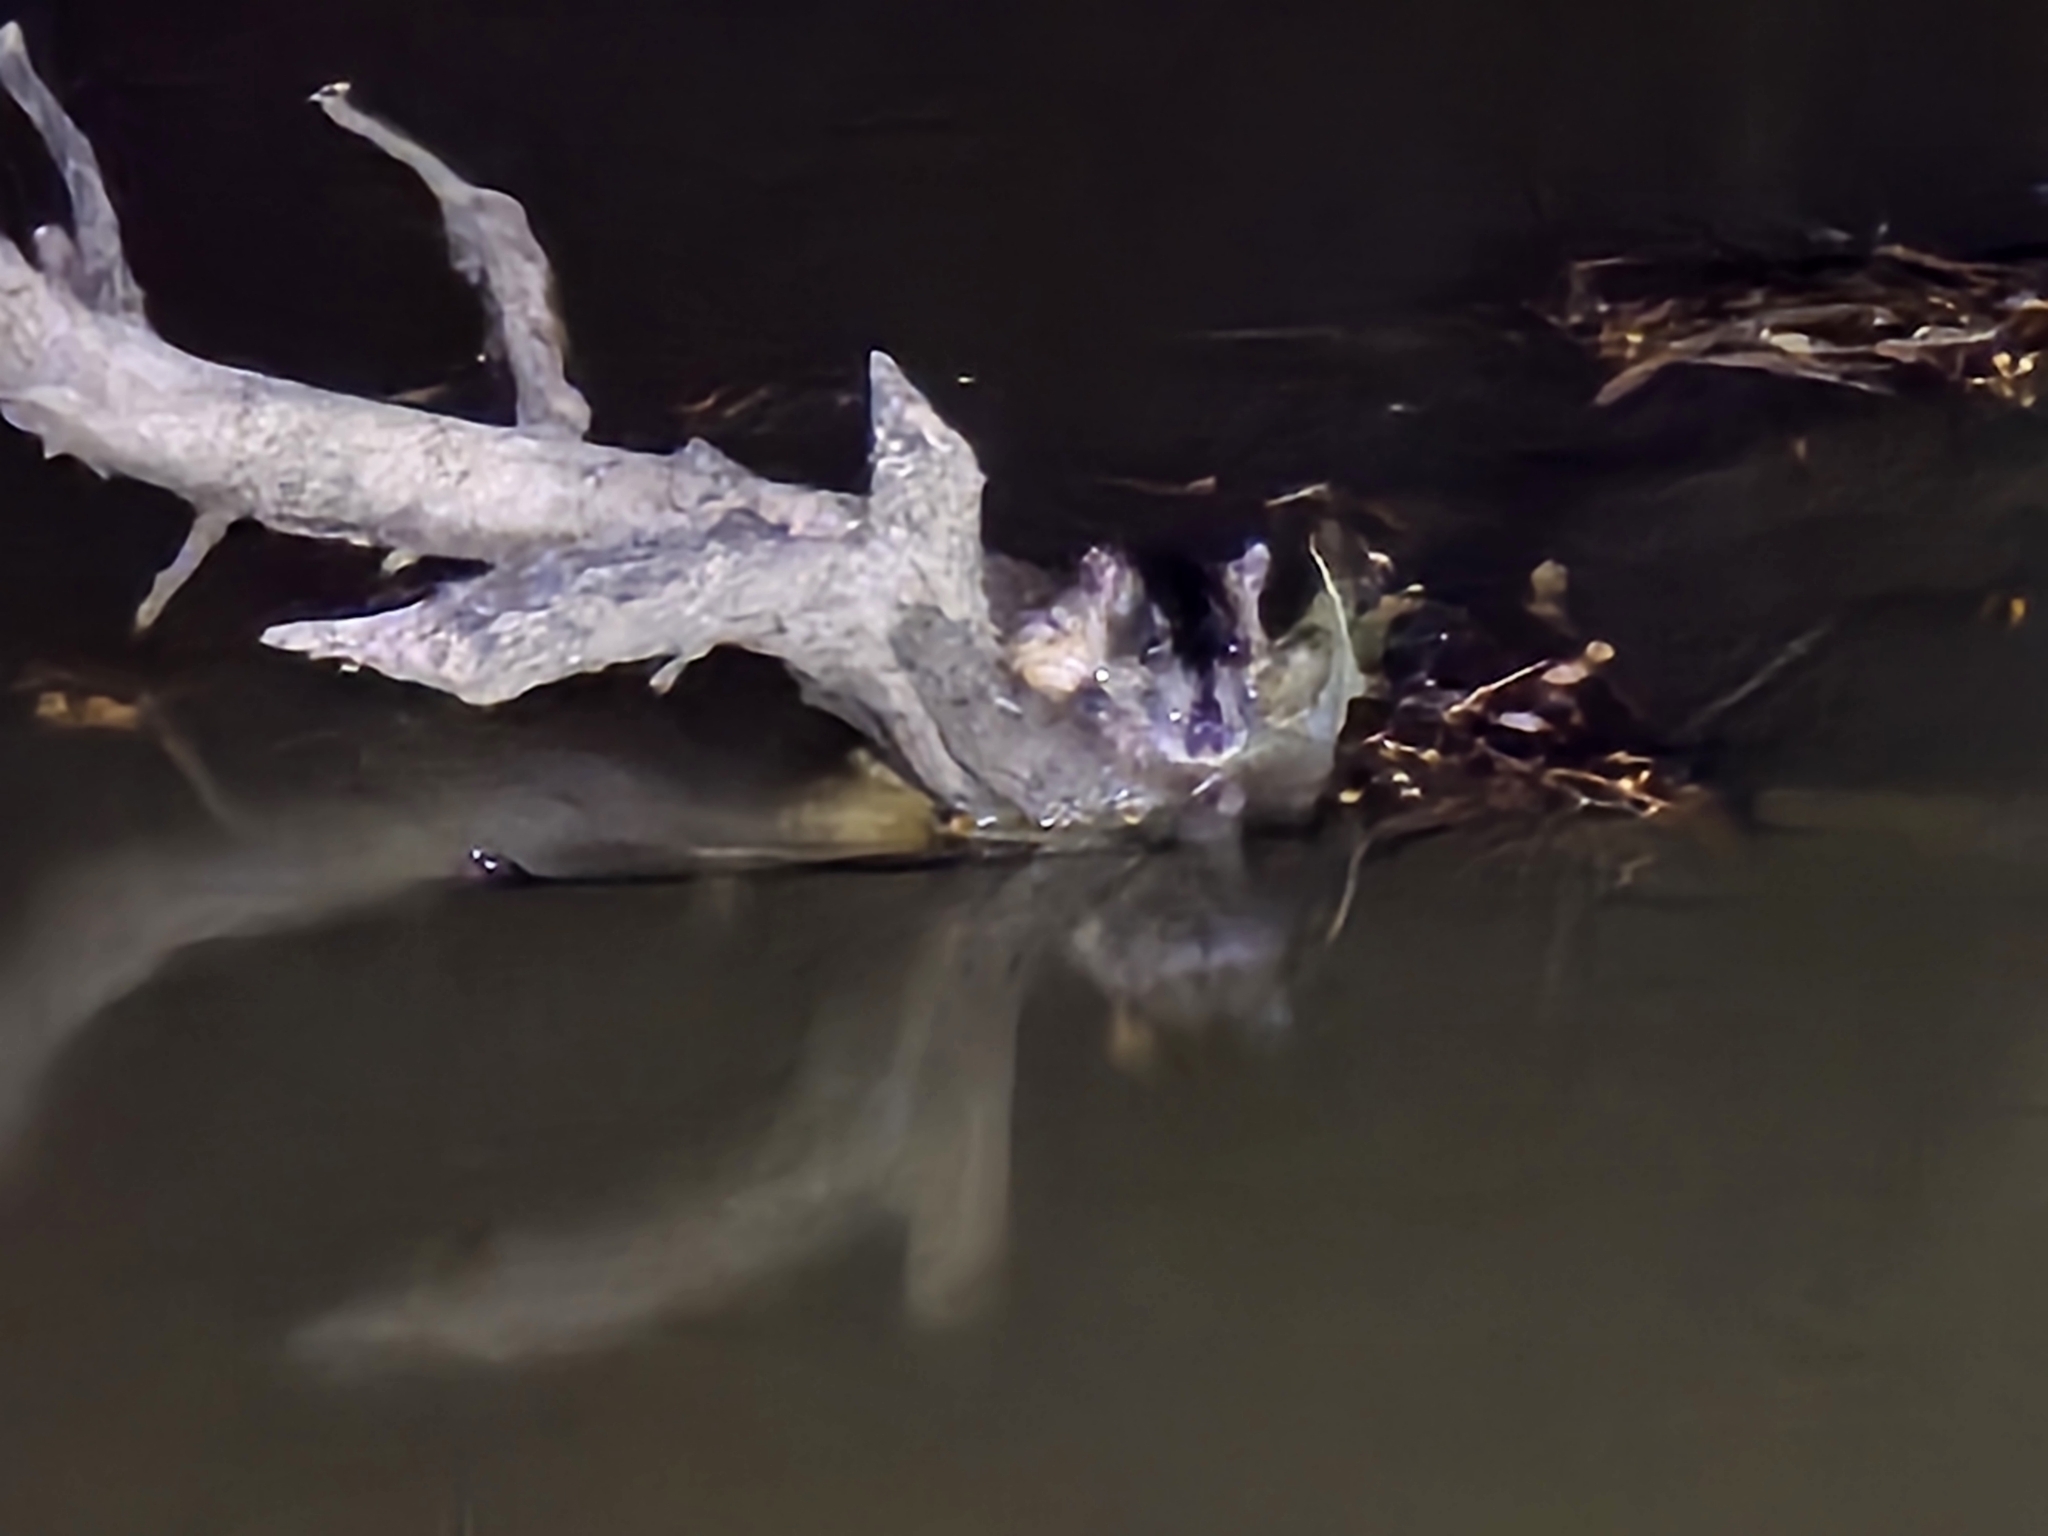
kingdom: Animalia
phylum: Chordata
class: Mammalia
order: Rodentia
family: Muridae
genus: Hydromys
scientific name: Hydromys chrysogaster
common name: Common water rat
